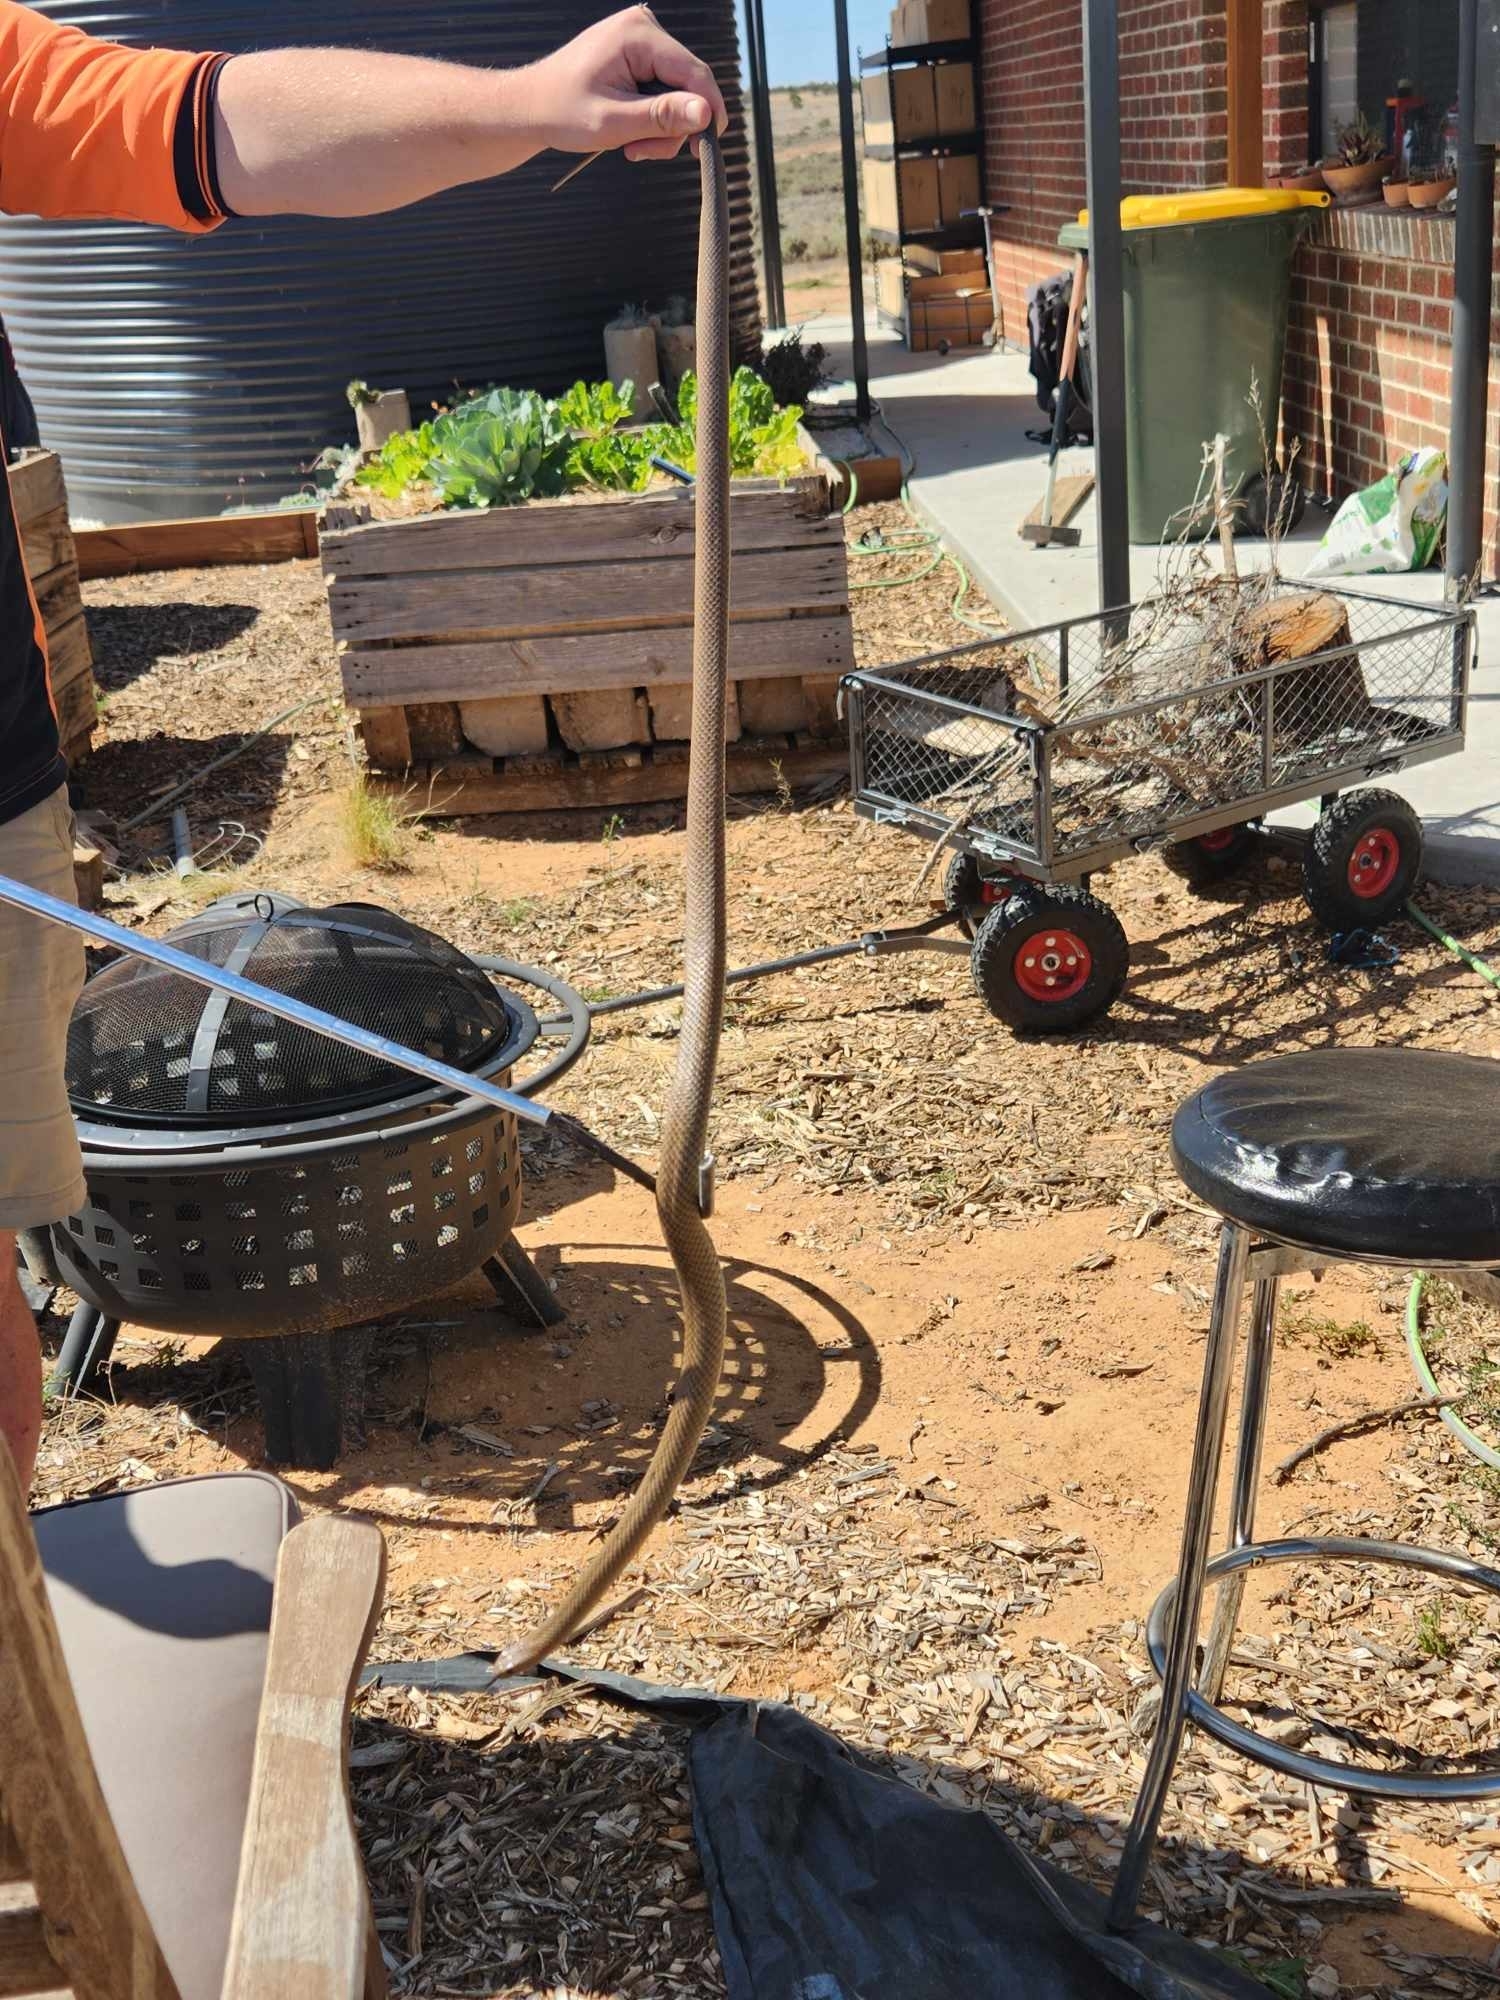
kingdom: Animalia
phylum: Chordata
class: Squamata
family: Elapidae
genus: Pseudonaja
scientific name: Pseudonaja textilis
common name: Eastern brown snake
